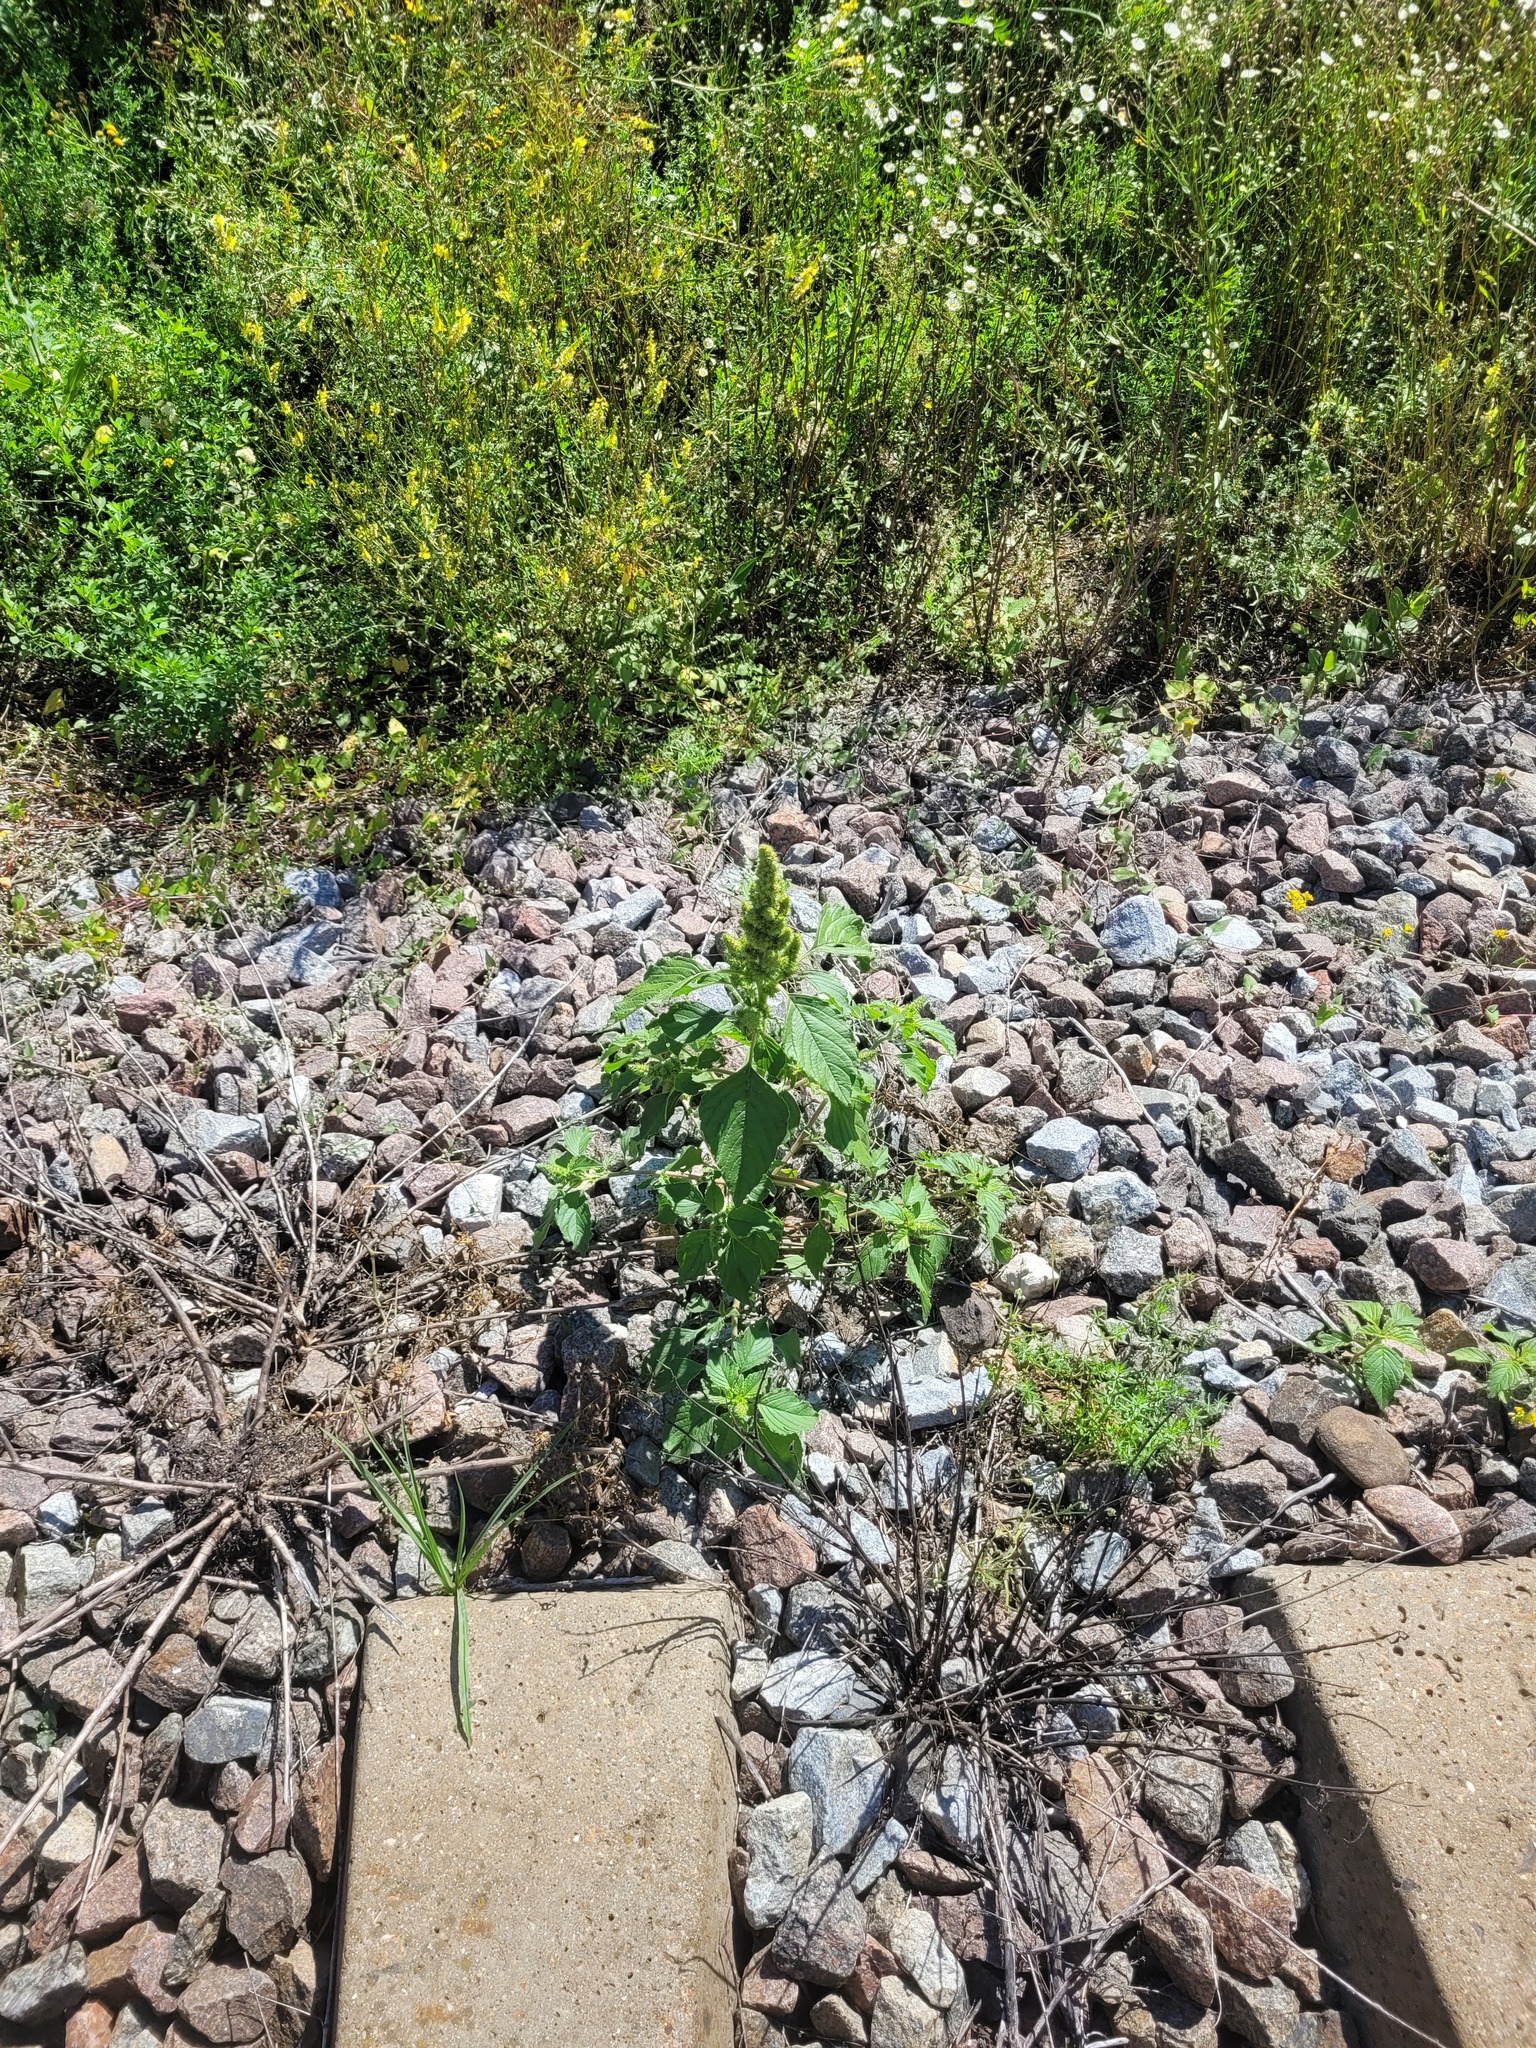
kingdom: Plantae
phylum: Tracheophyta
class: Magnoliopsida
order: Caryophyllales
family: Amaranthaceae
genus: Amaranthus
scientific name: Amaranthus retroflexus
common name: Redroot amaranth
